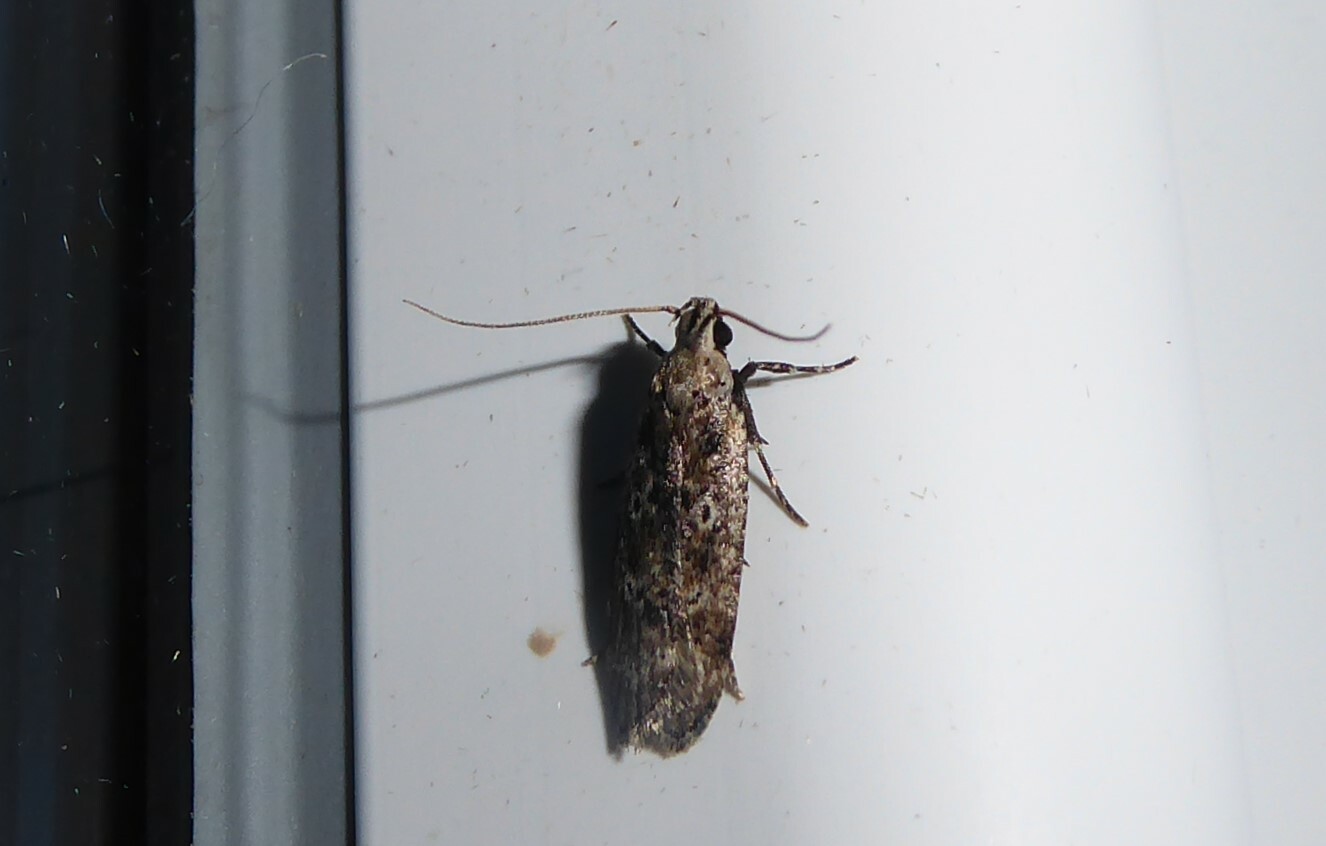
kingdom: Animalia
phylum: Arthropoda
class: Insecta
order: Lepidoptera
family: Gelechiidae
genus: Anisoplaca
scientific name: Anisoplaca achyrota
